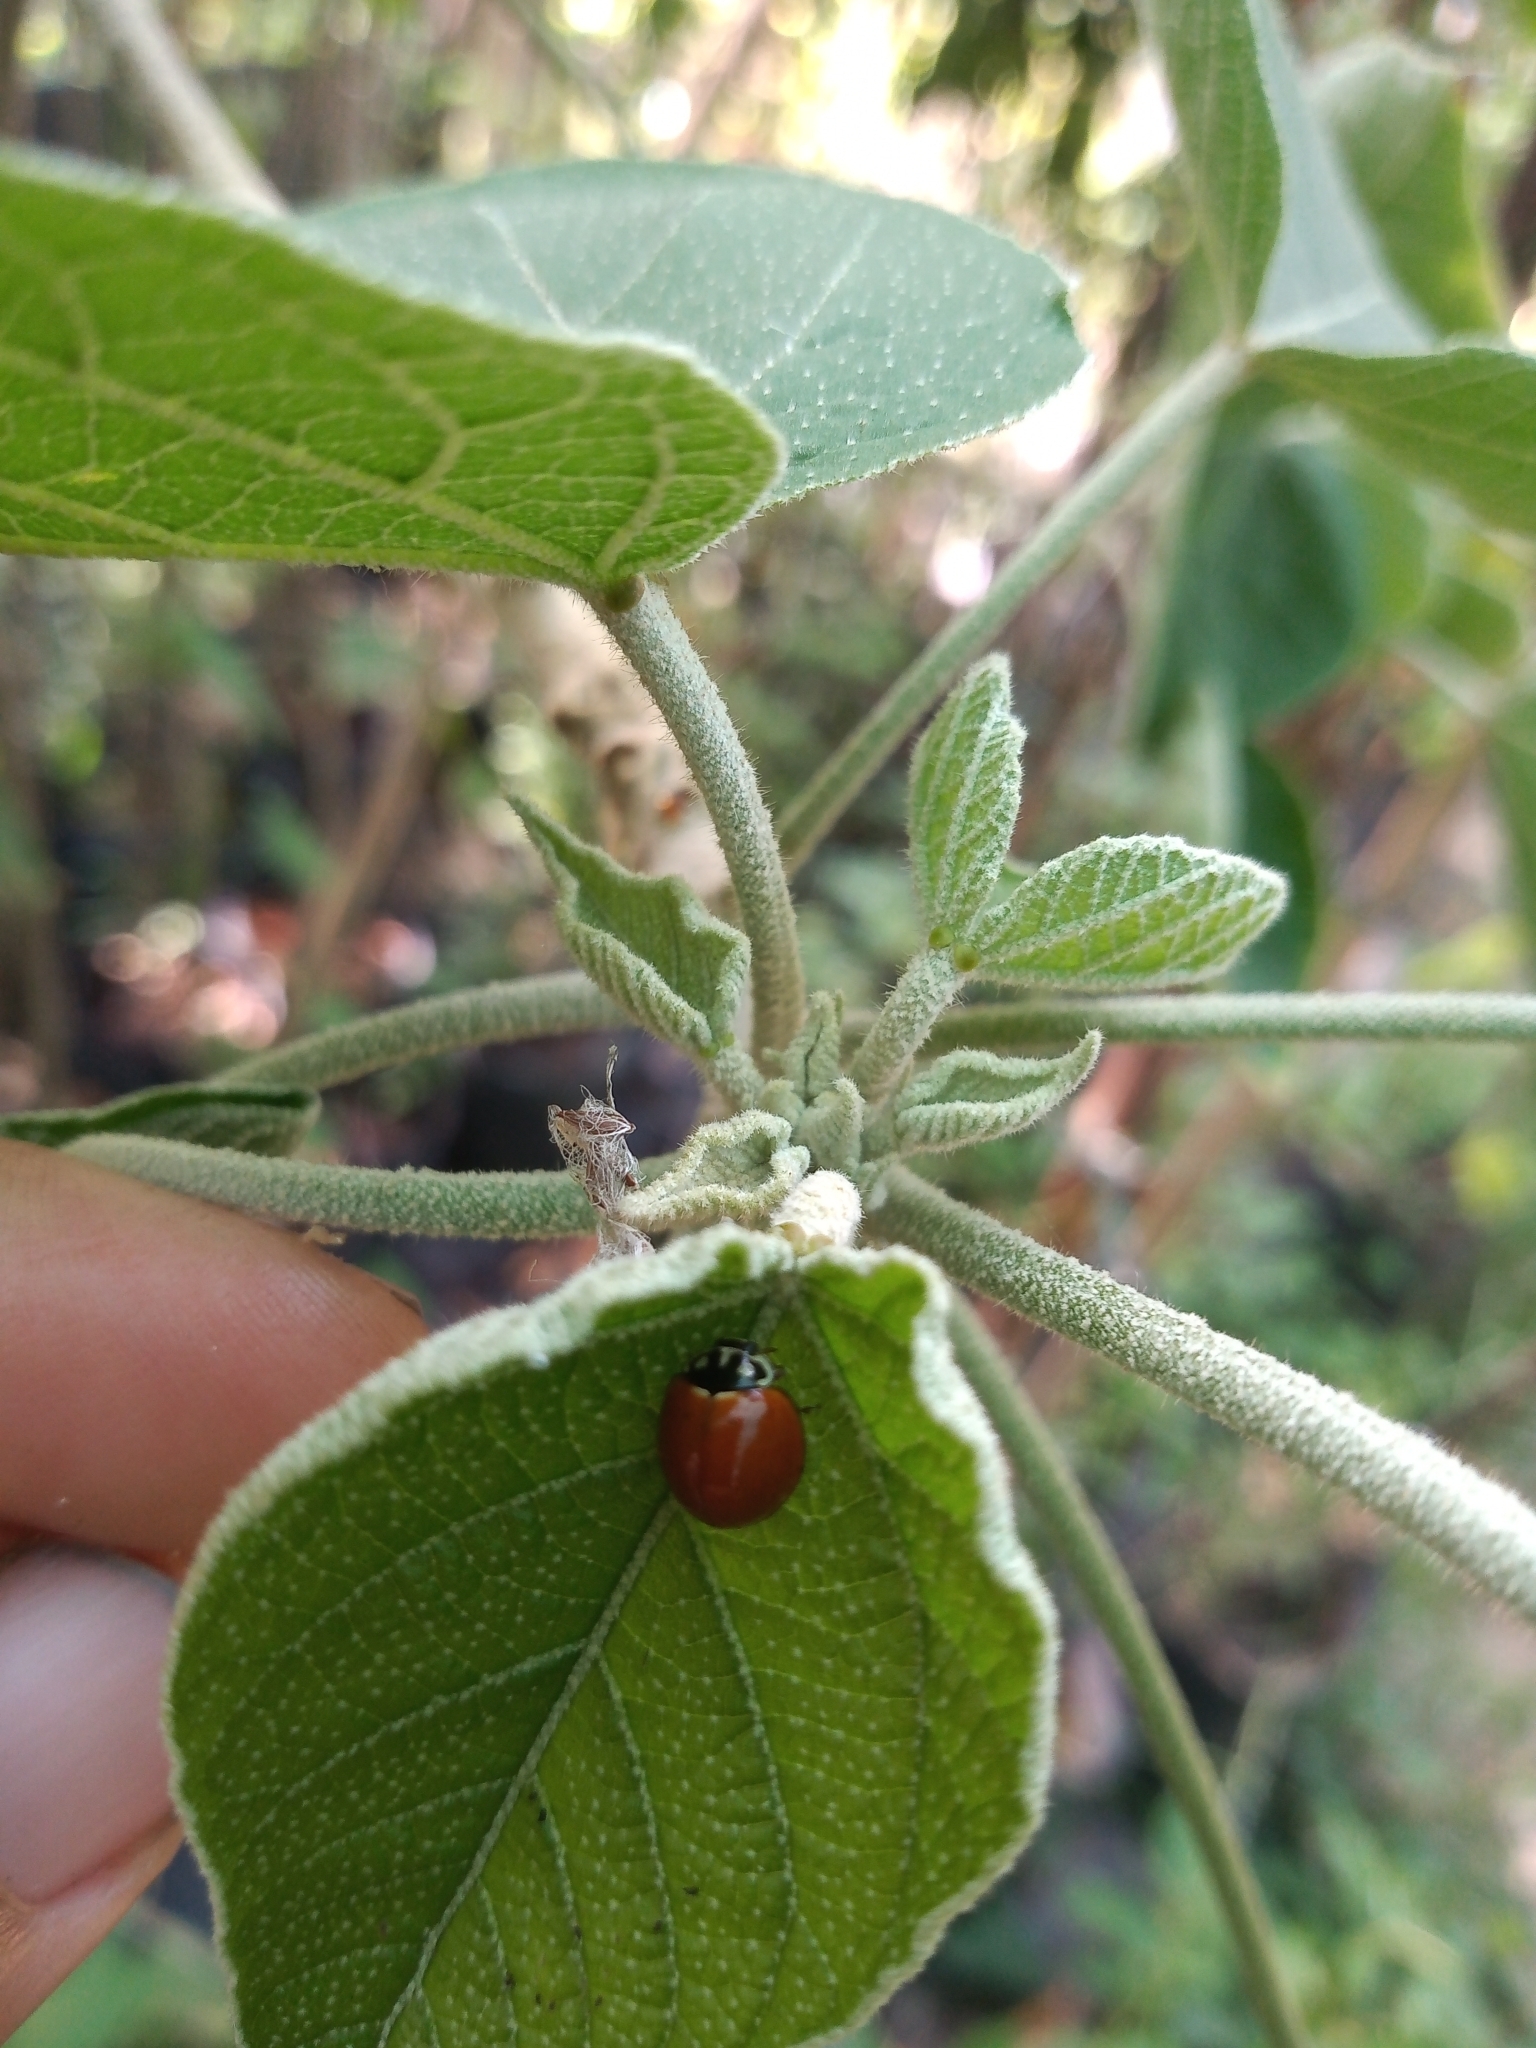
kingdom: Animalia
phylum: Arthropoda
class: Insecta
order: Coleoptera
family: Coccinellidae
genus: Cycloneda
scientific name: Cycloneda sanguinea
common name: Ladybird beetle
